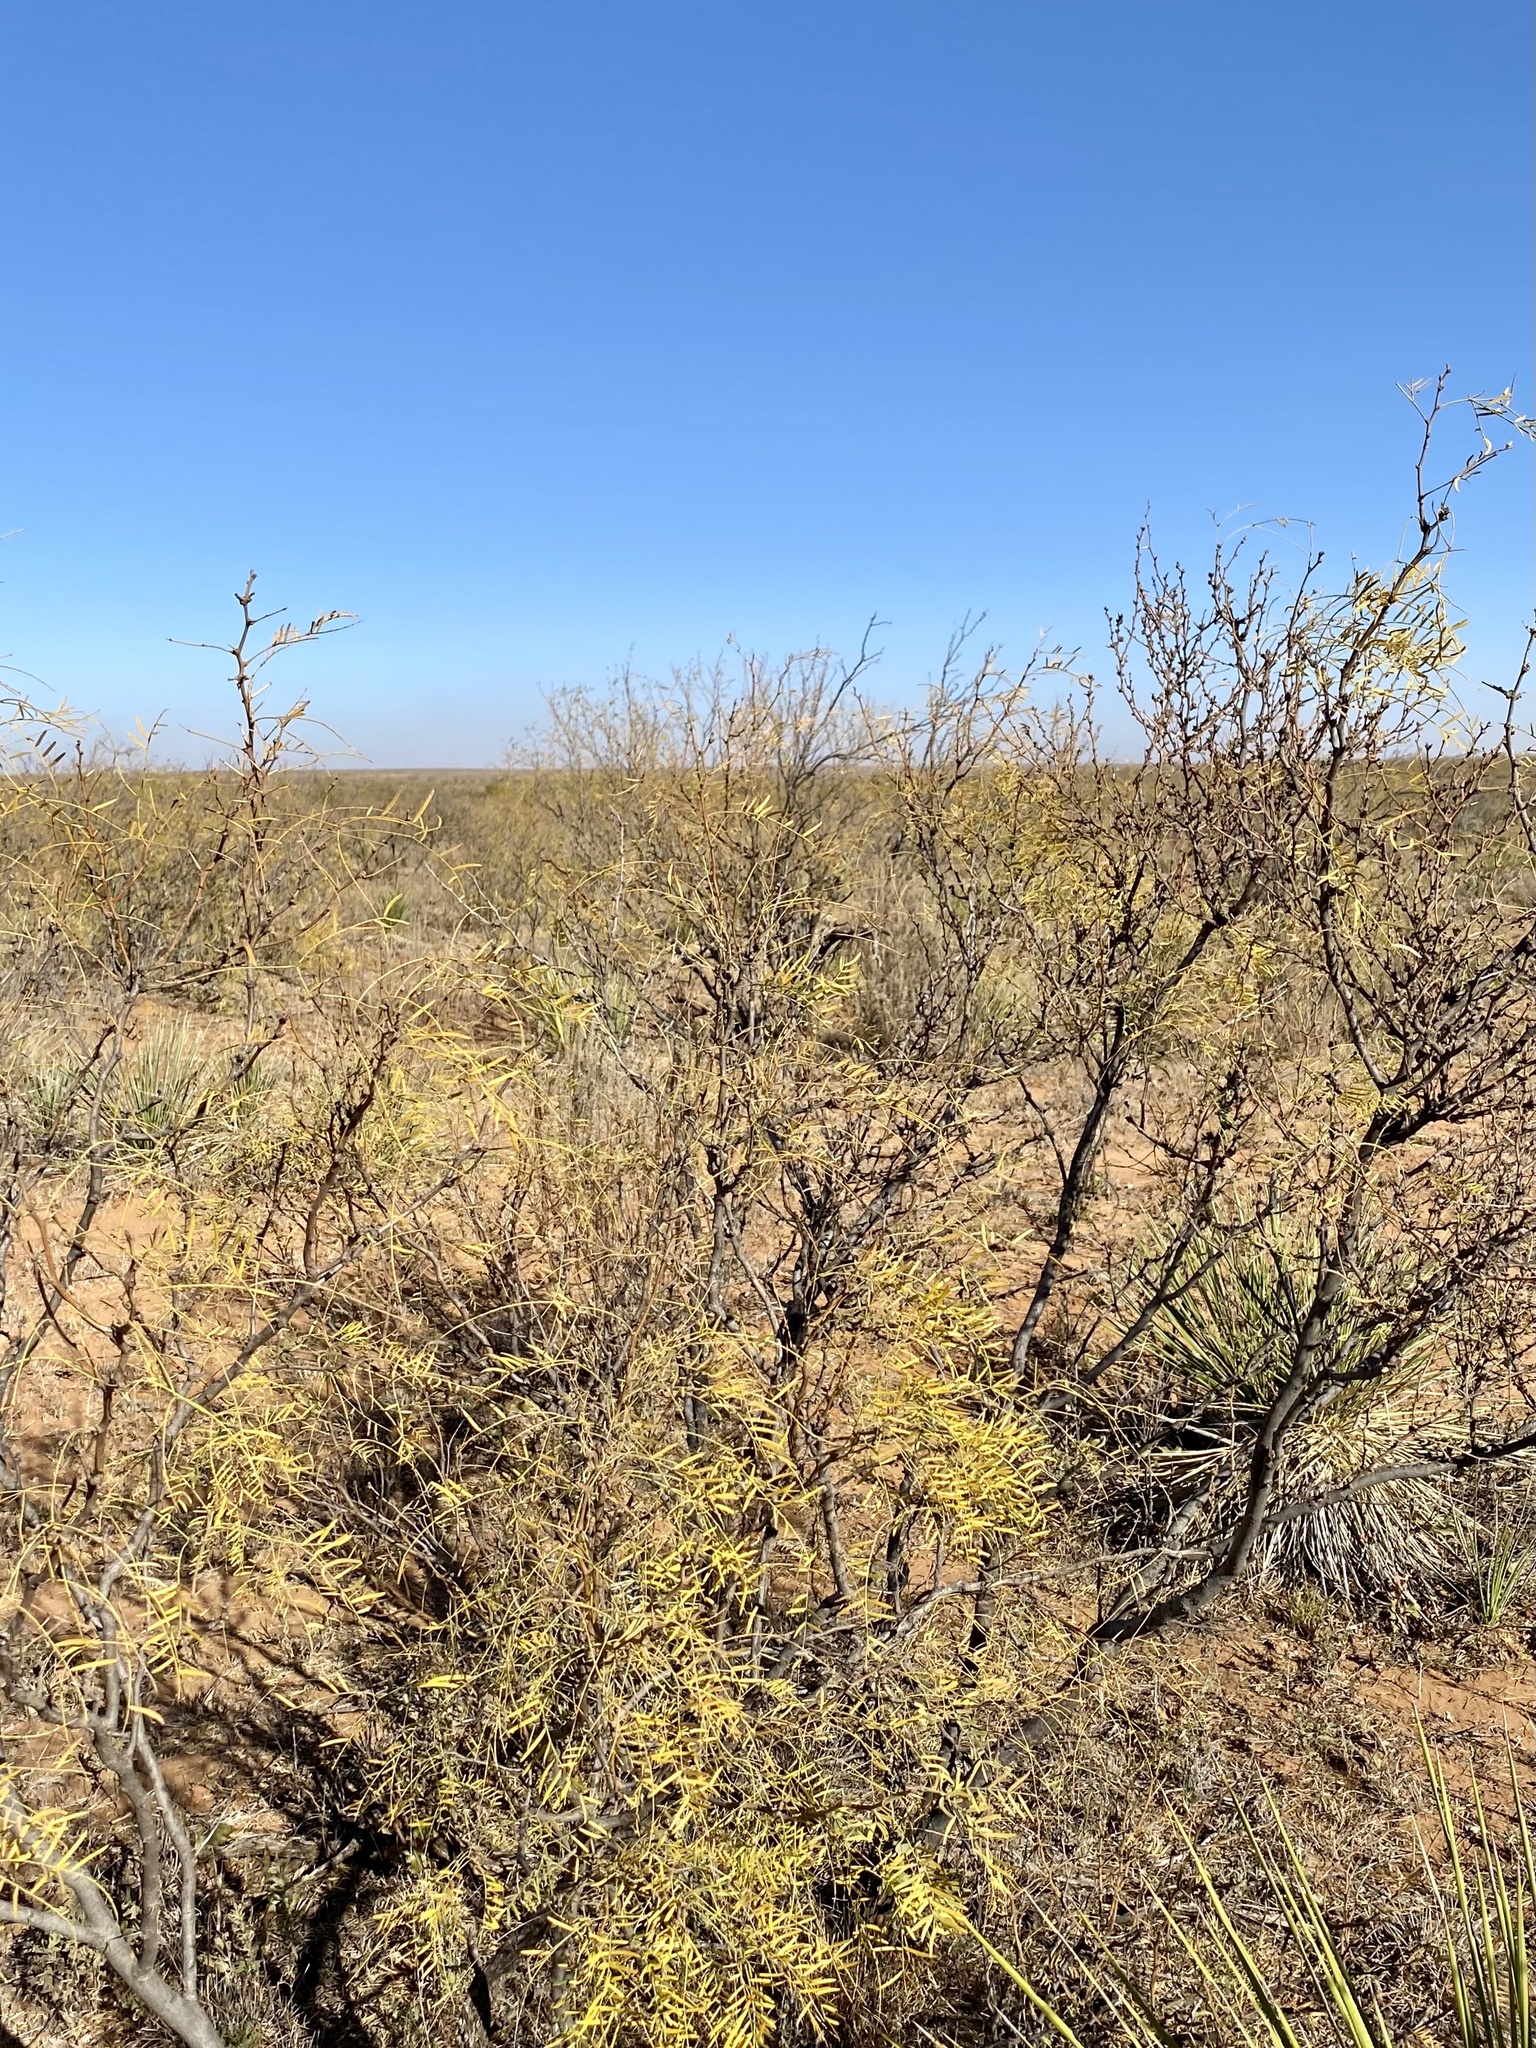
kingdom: Plantae
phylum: Tracheophyta
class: Magnoliopsida
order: Fabales
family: Fabaceae
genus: Prosopis
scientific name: Prosopis glandulosa
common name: Honey mesquite
